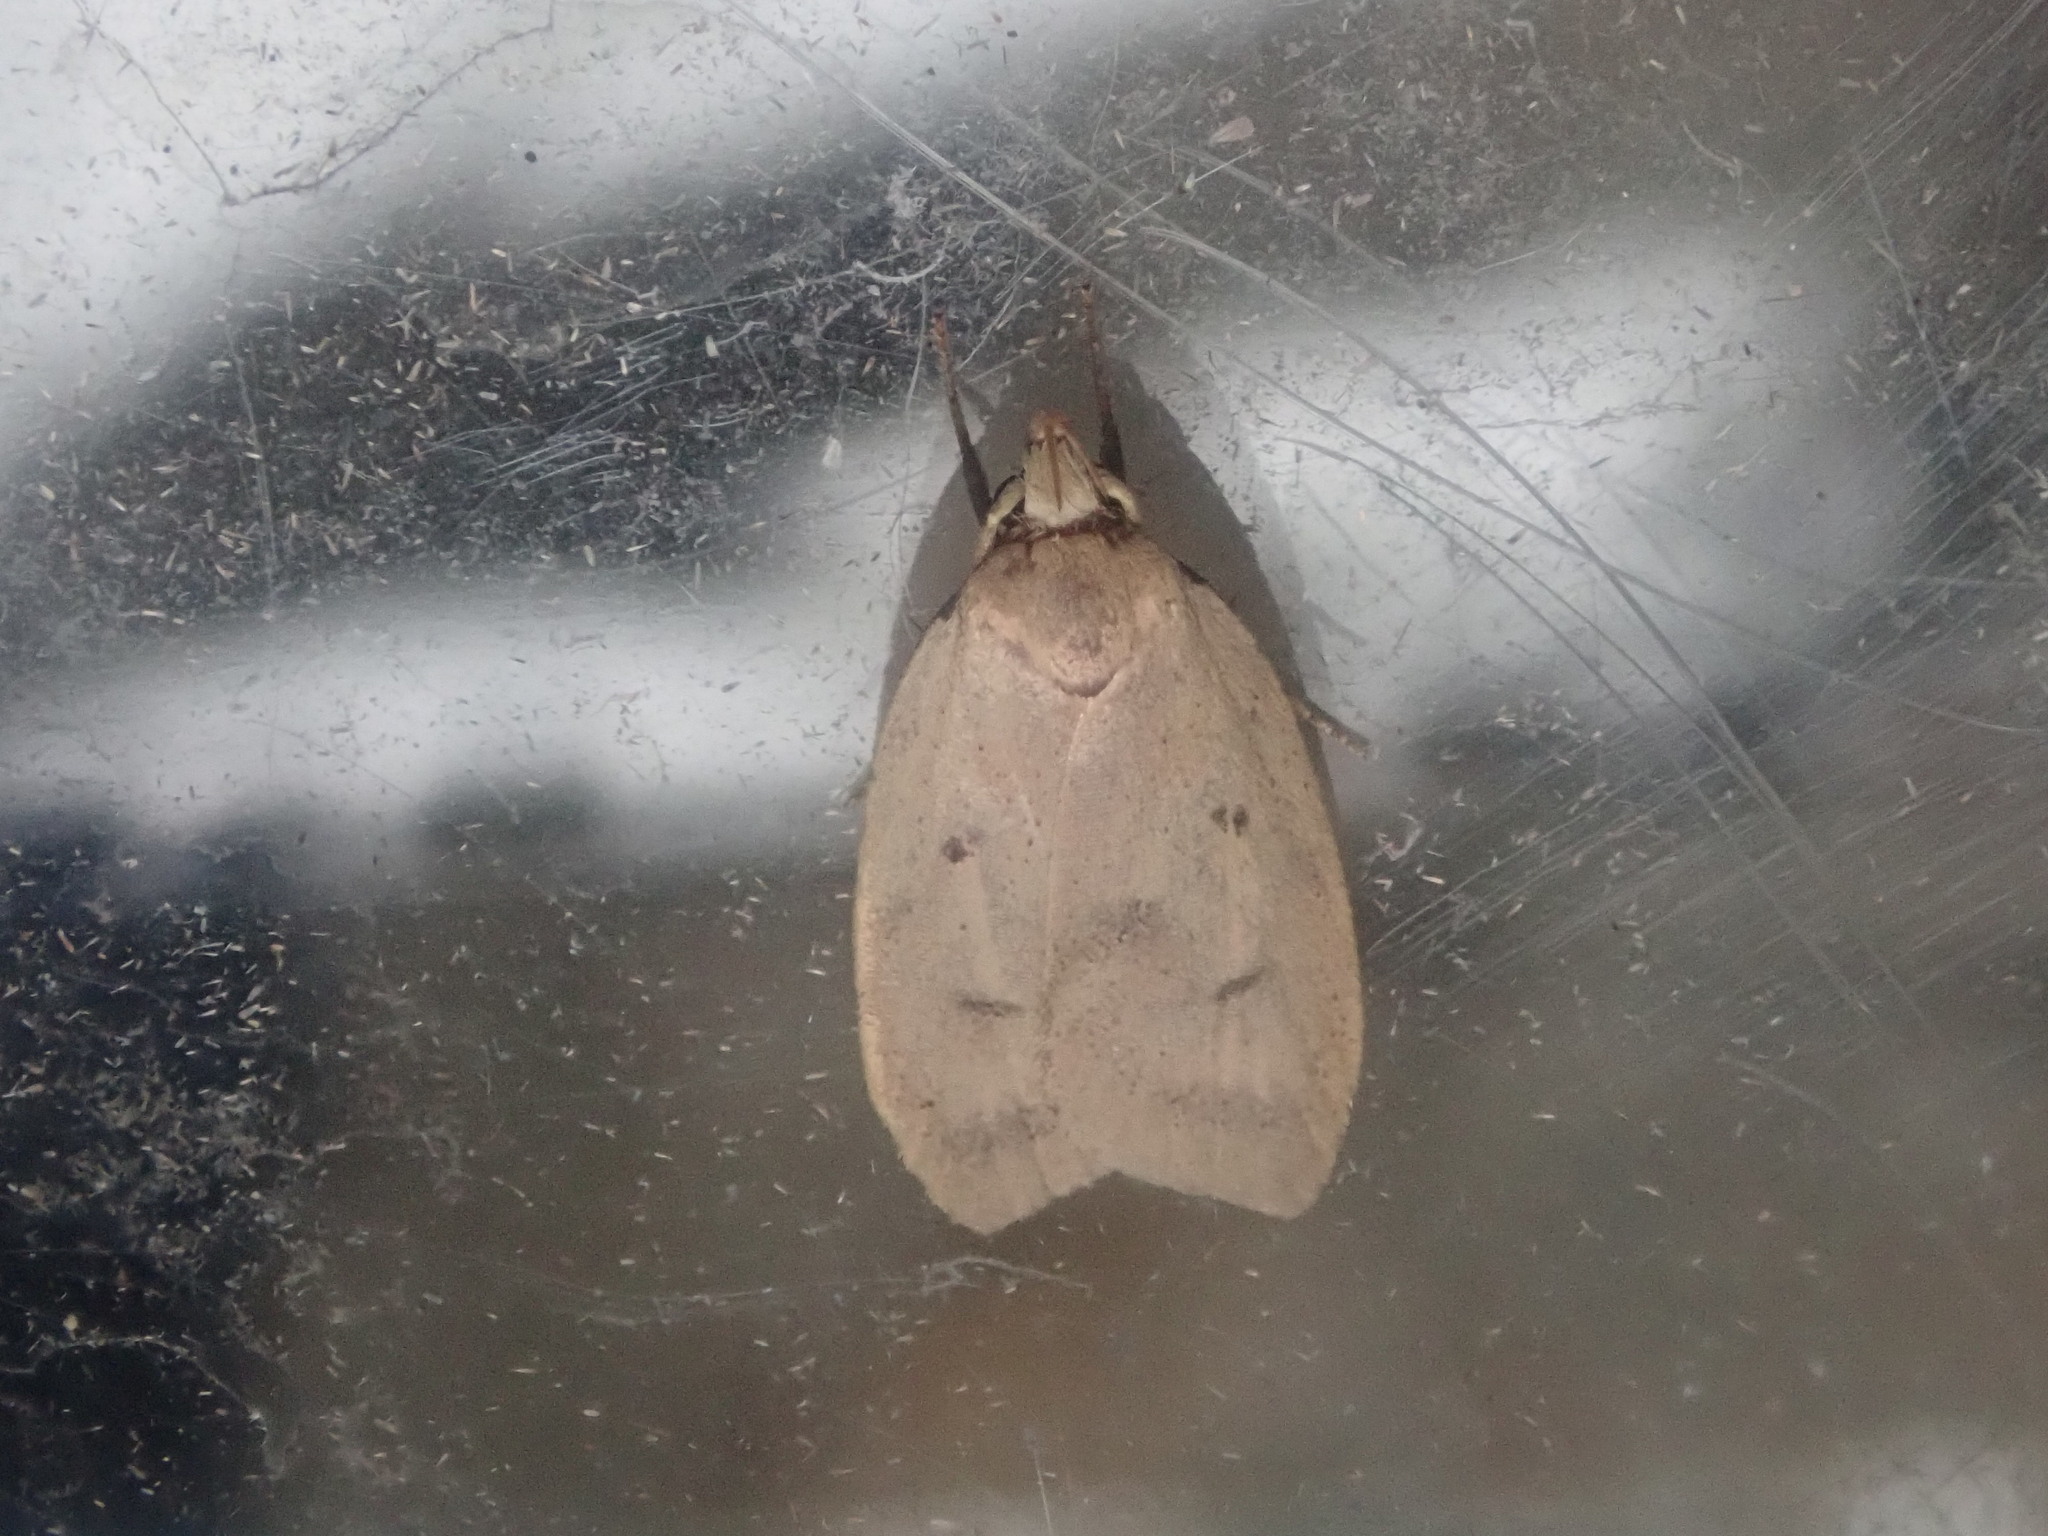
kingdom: Animalia
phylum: Arthropoda
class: Insecta
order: Lepidoptera
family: Peleopodidae
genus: Machimia
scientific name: Machimia tentoriferella
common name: Gold-striped leaftier moth
